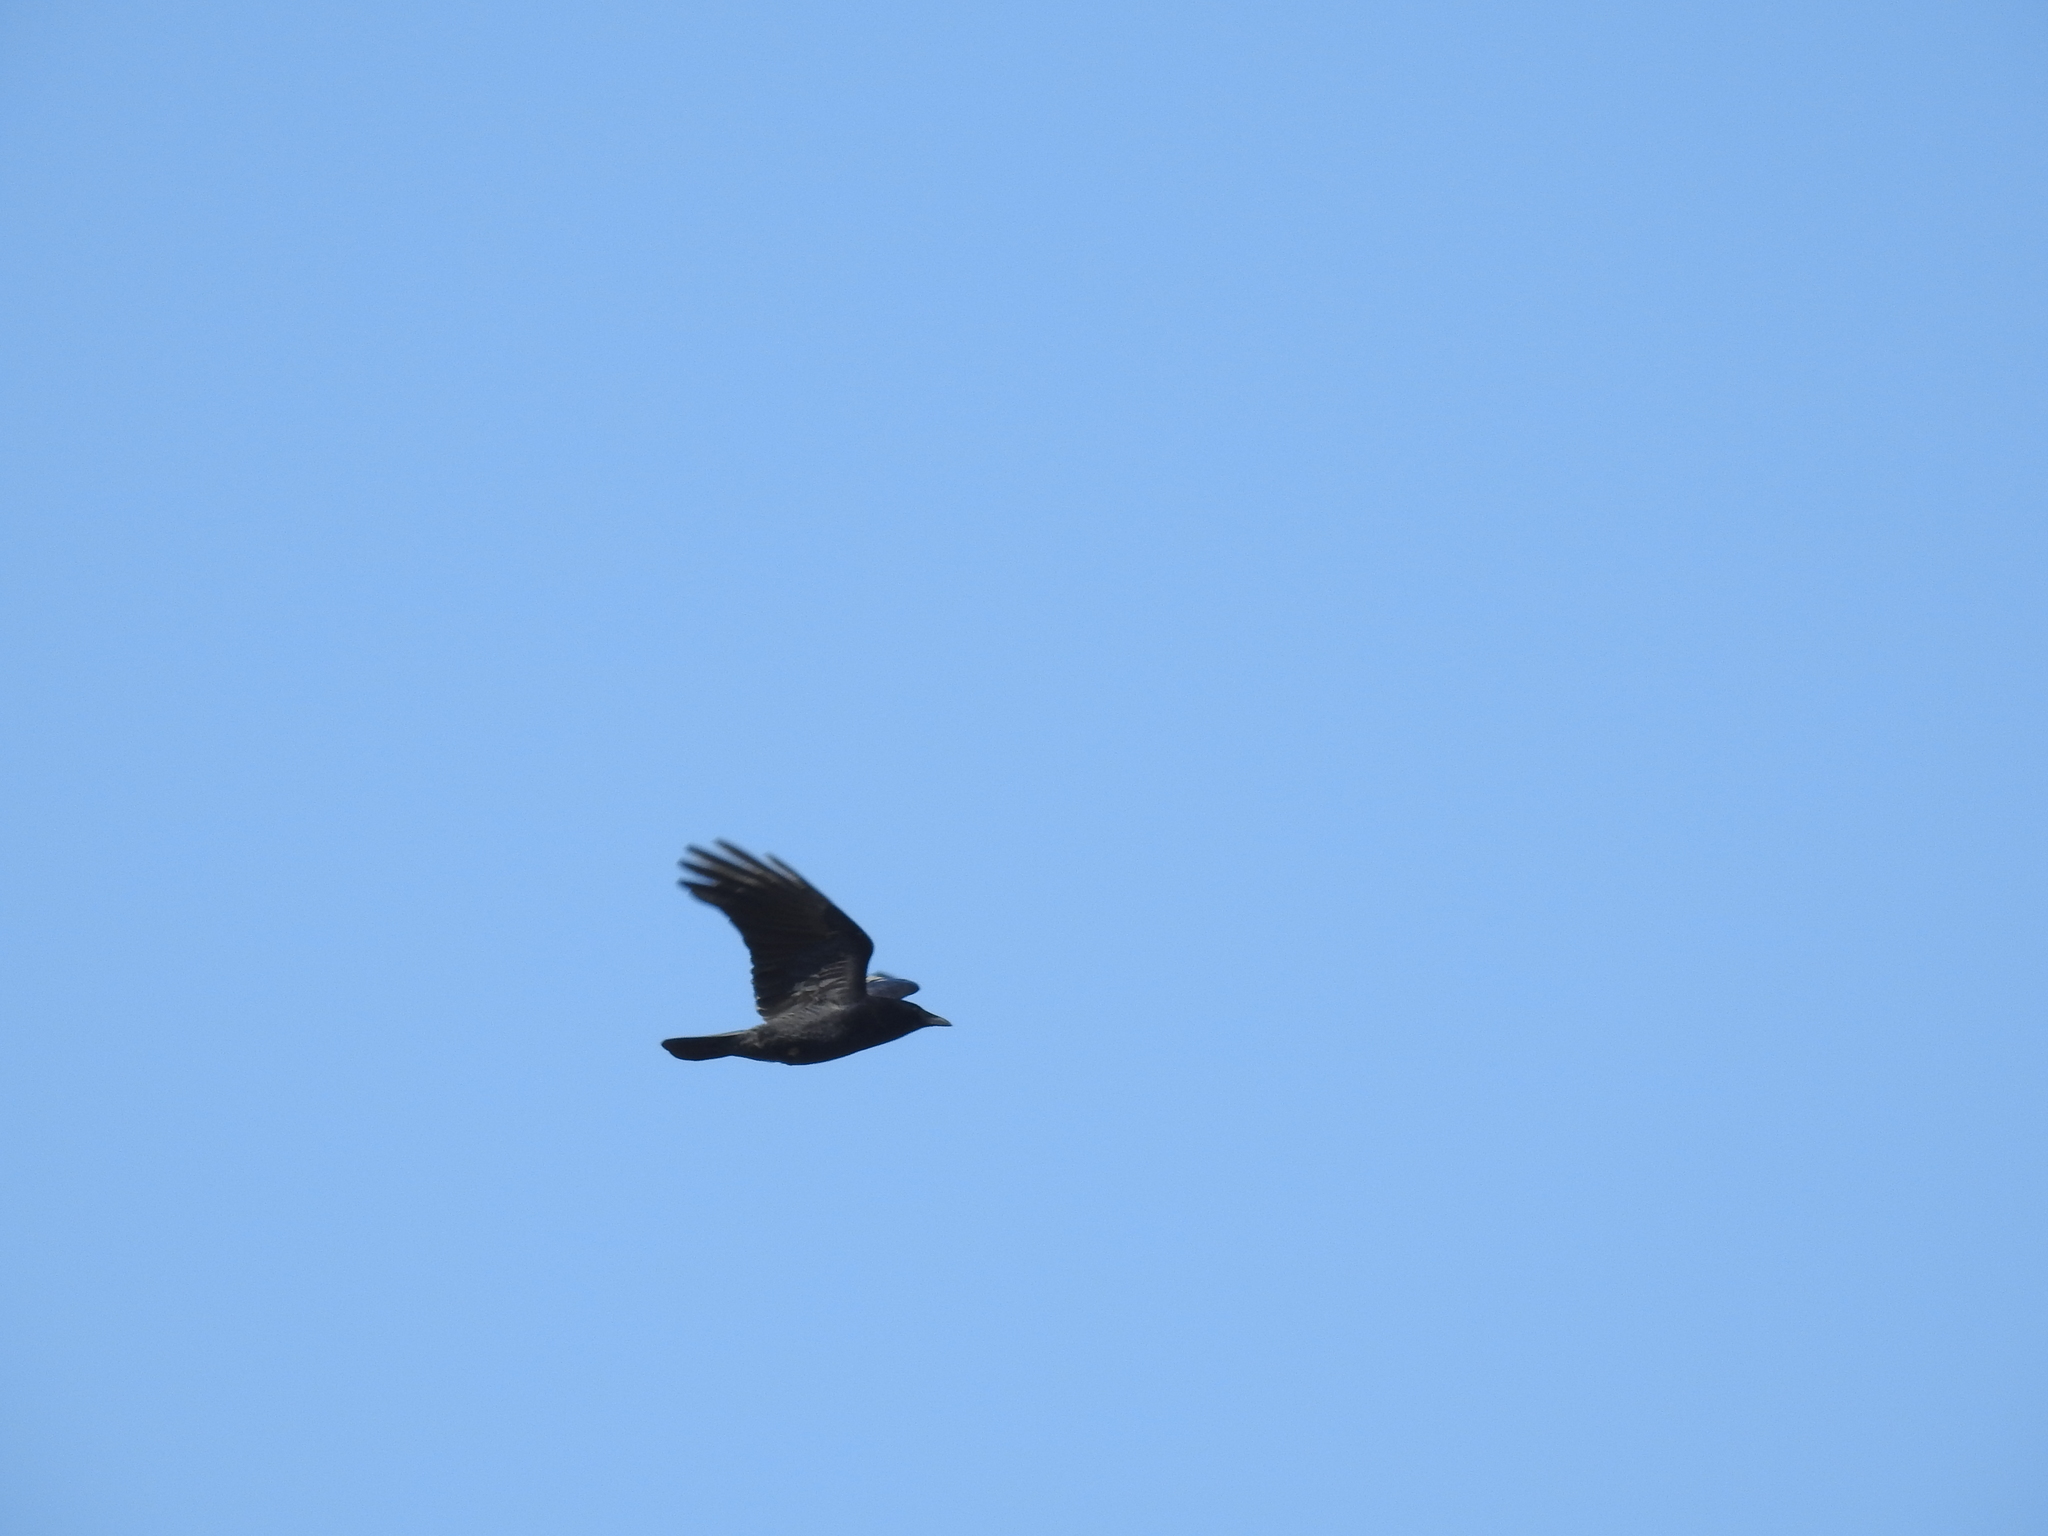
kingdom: Animalia
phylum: Chordata
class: Aves
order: Passeriformes
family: Corvidae
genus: Corvus
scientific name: Corvus brachyrhynchos
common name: American crow
